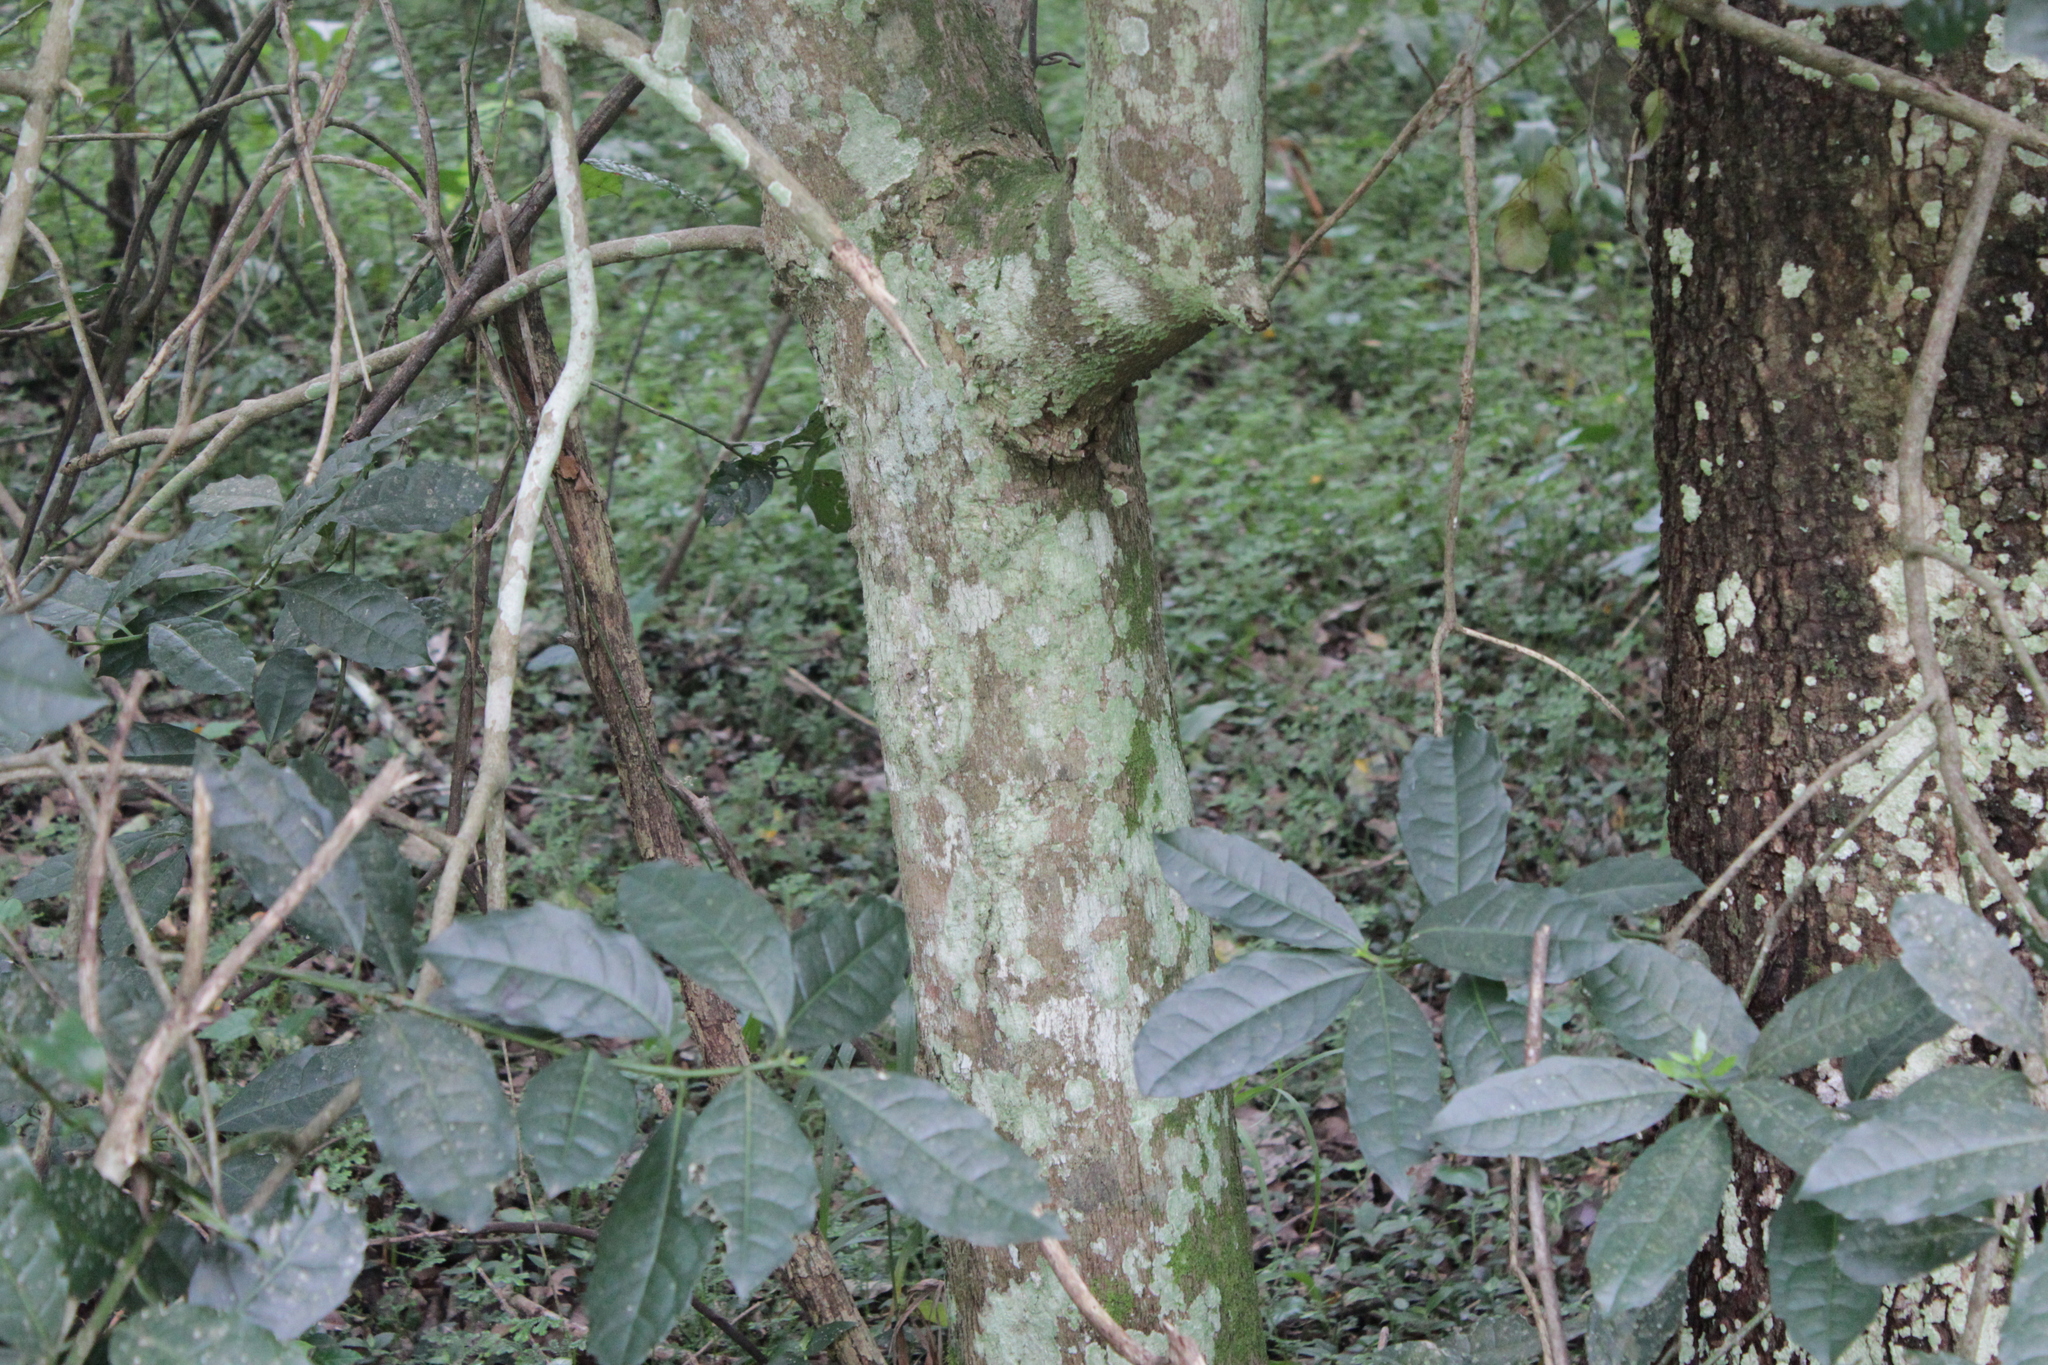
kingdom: Plantae
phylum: Tracheophyta
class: Magnoliopsida
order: Laurales
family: Monimiaceae
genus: Xymalos
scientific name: Xymalos monospora
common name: Lemonwood
